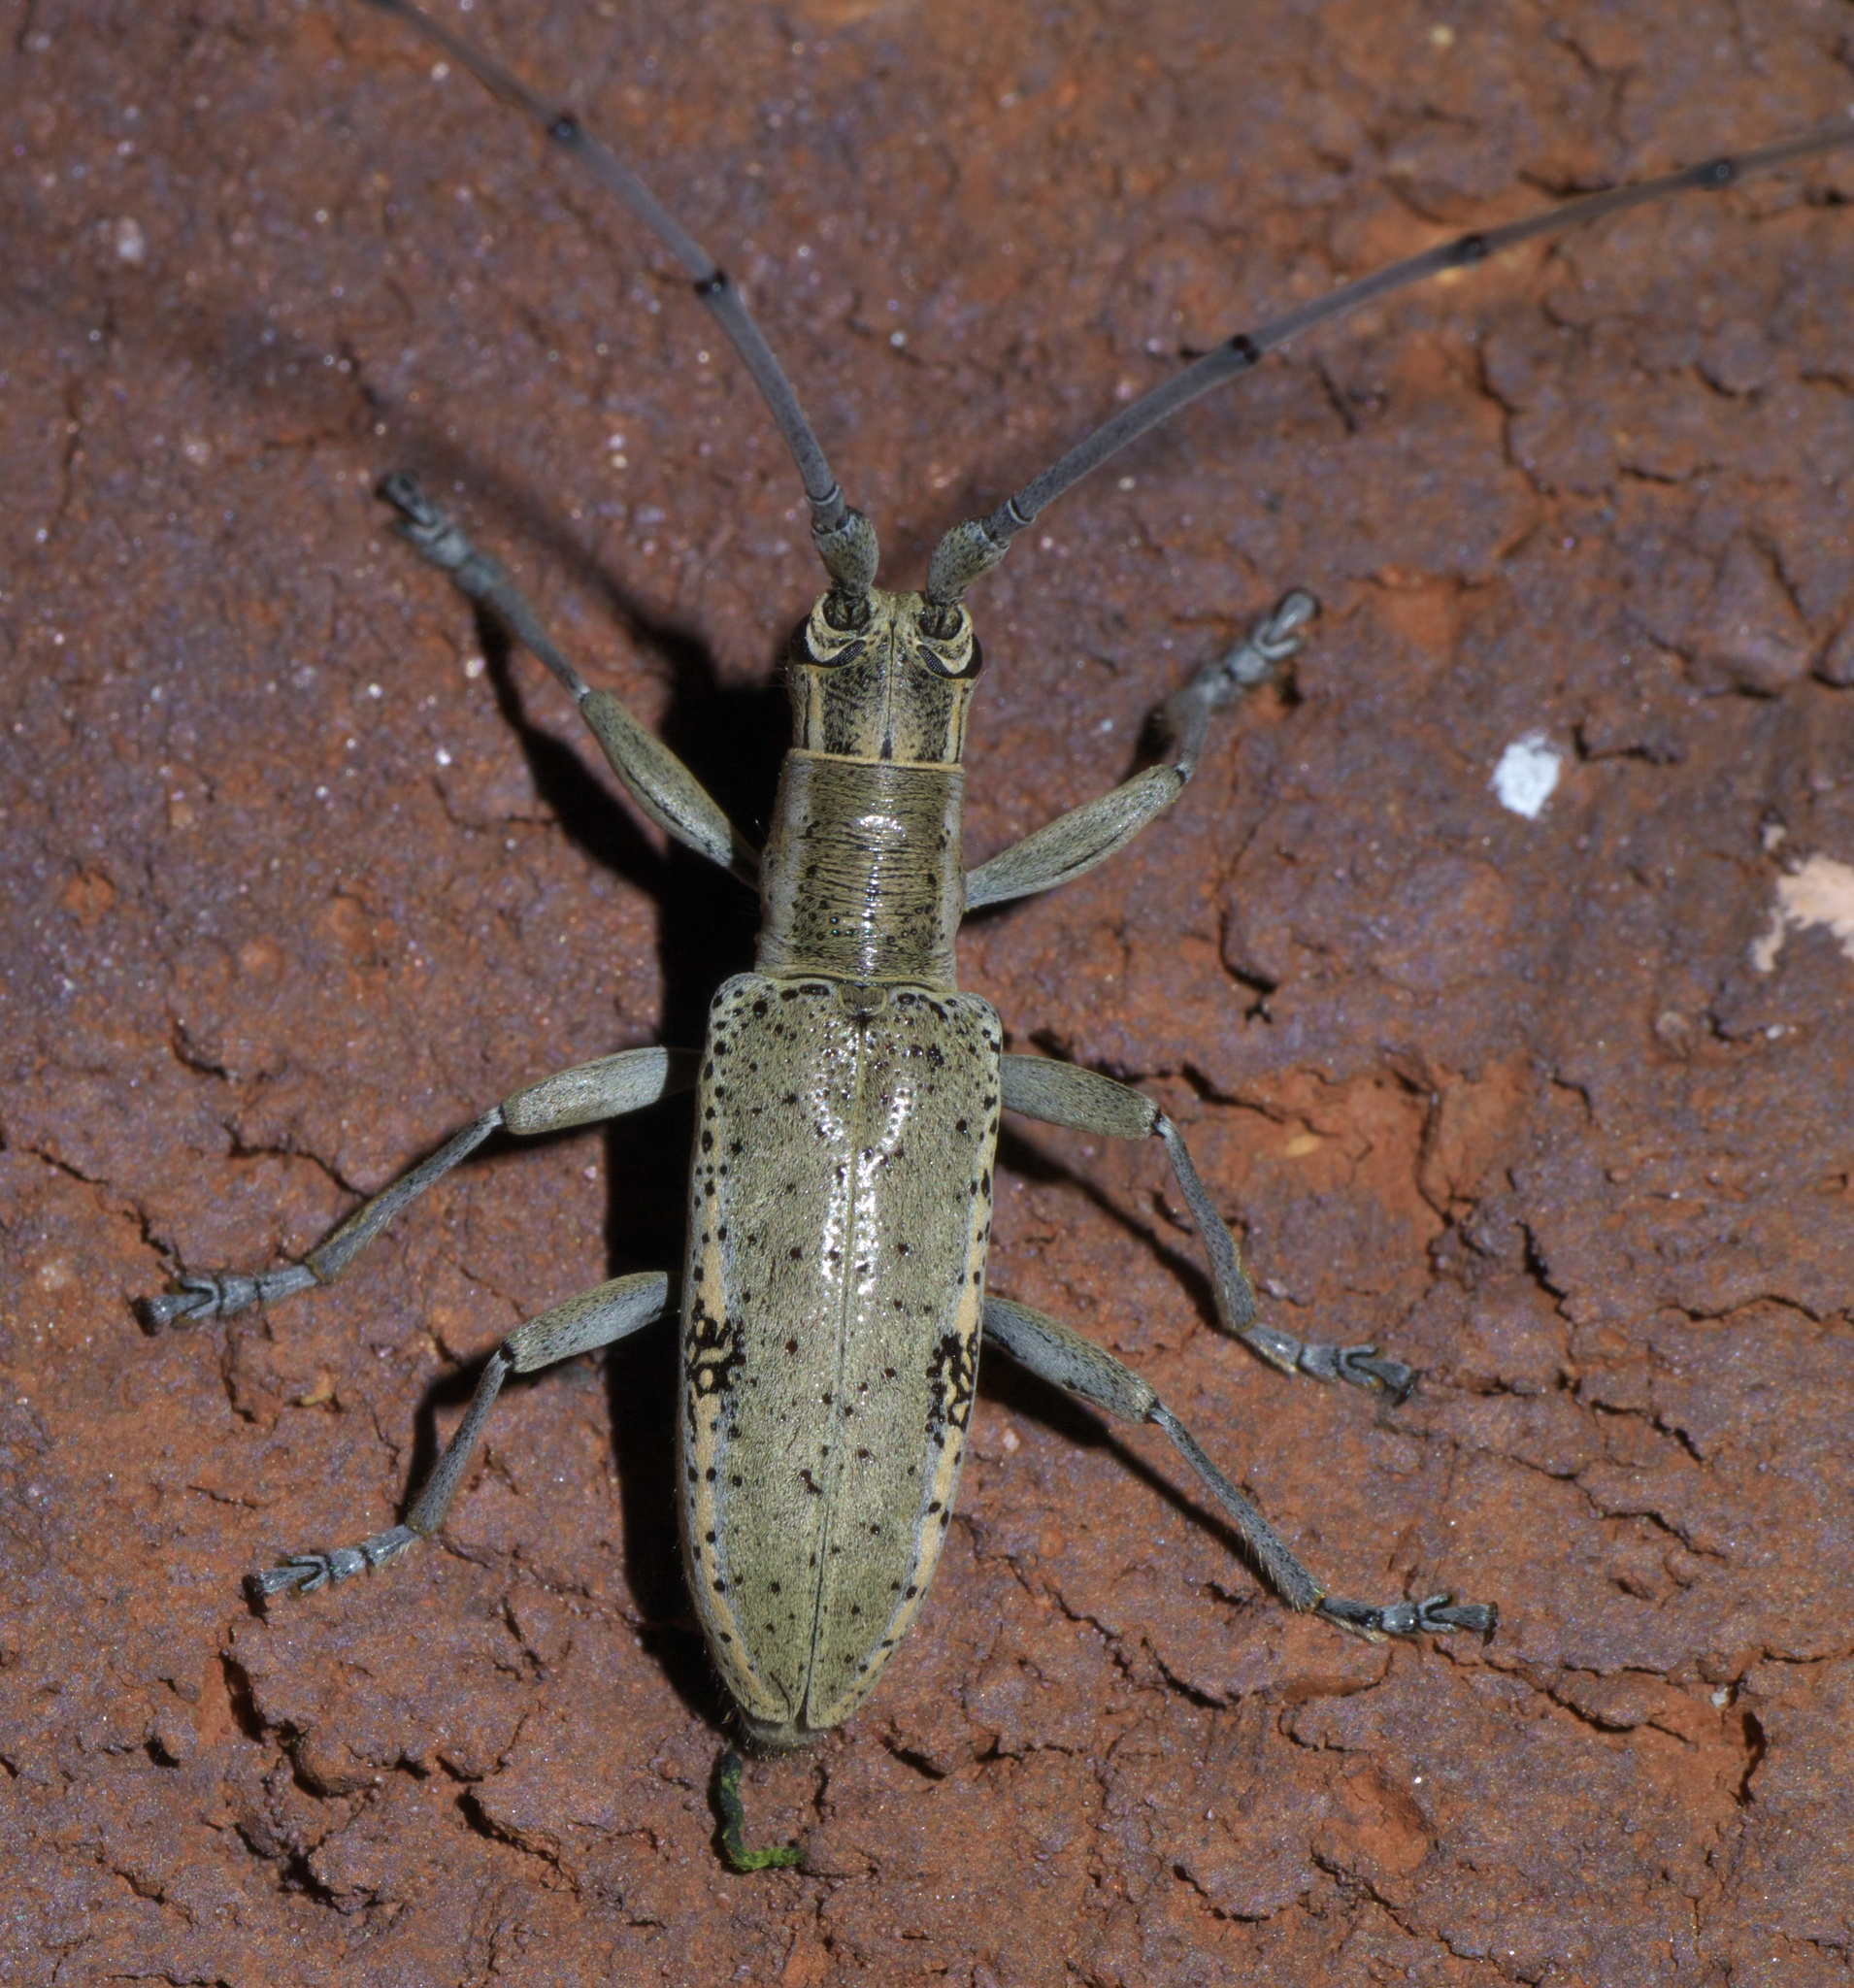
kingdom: Animalia
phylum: Arthropoda
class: Insecta
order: Coleoptera
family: Cerambycidae
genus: Dorcaschema
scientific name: Dorcaschema wildii
